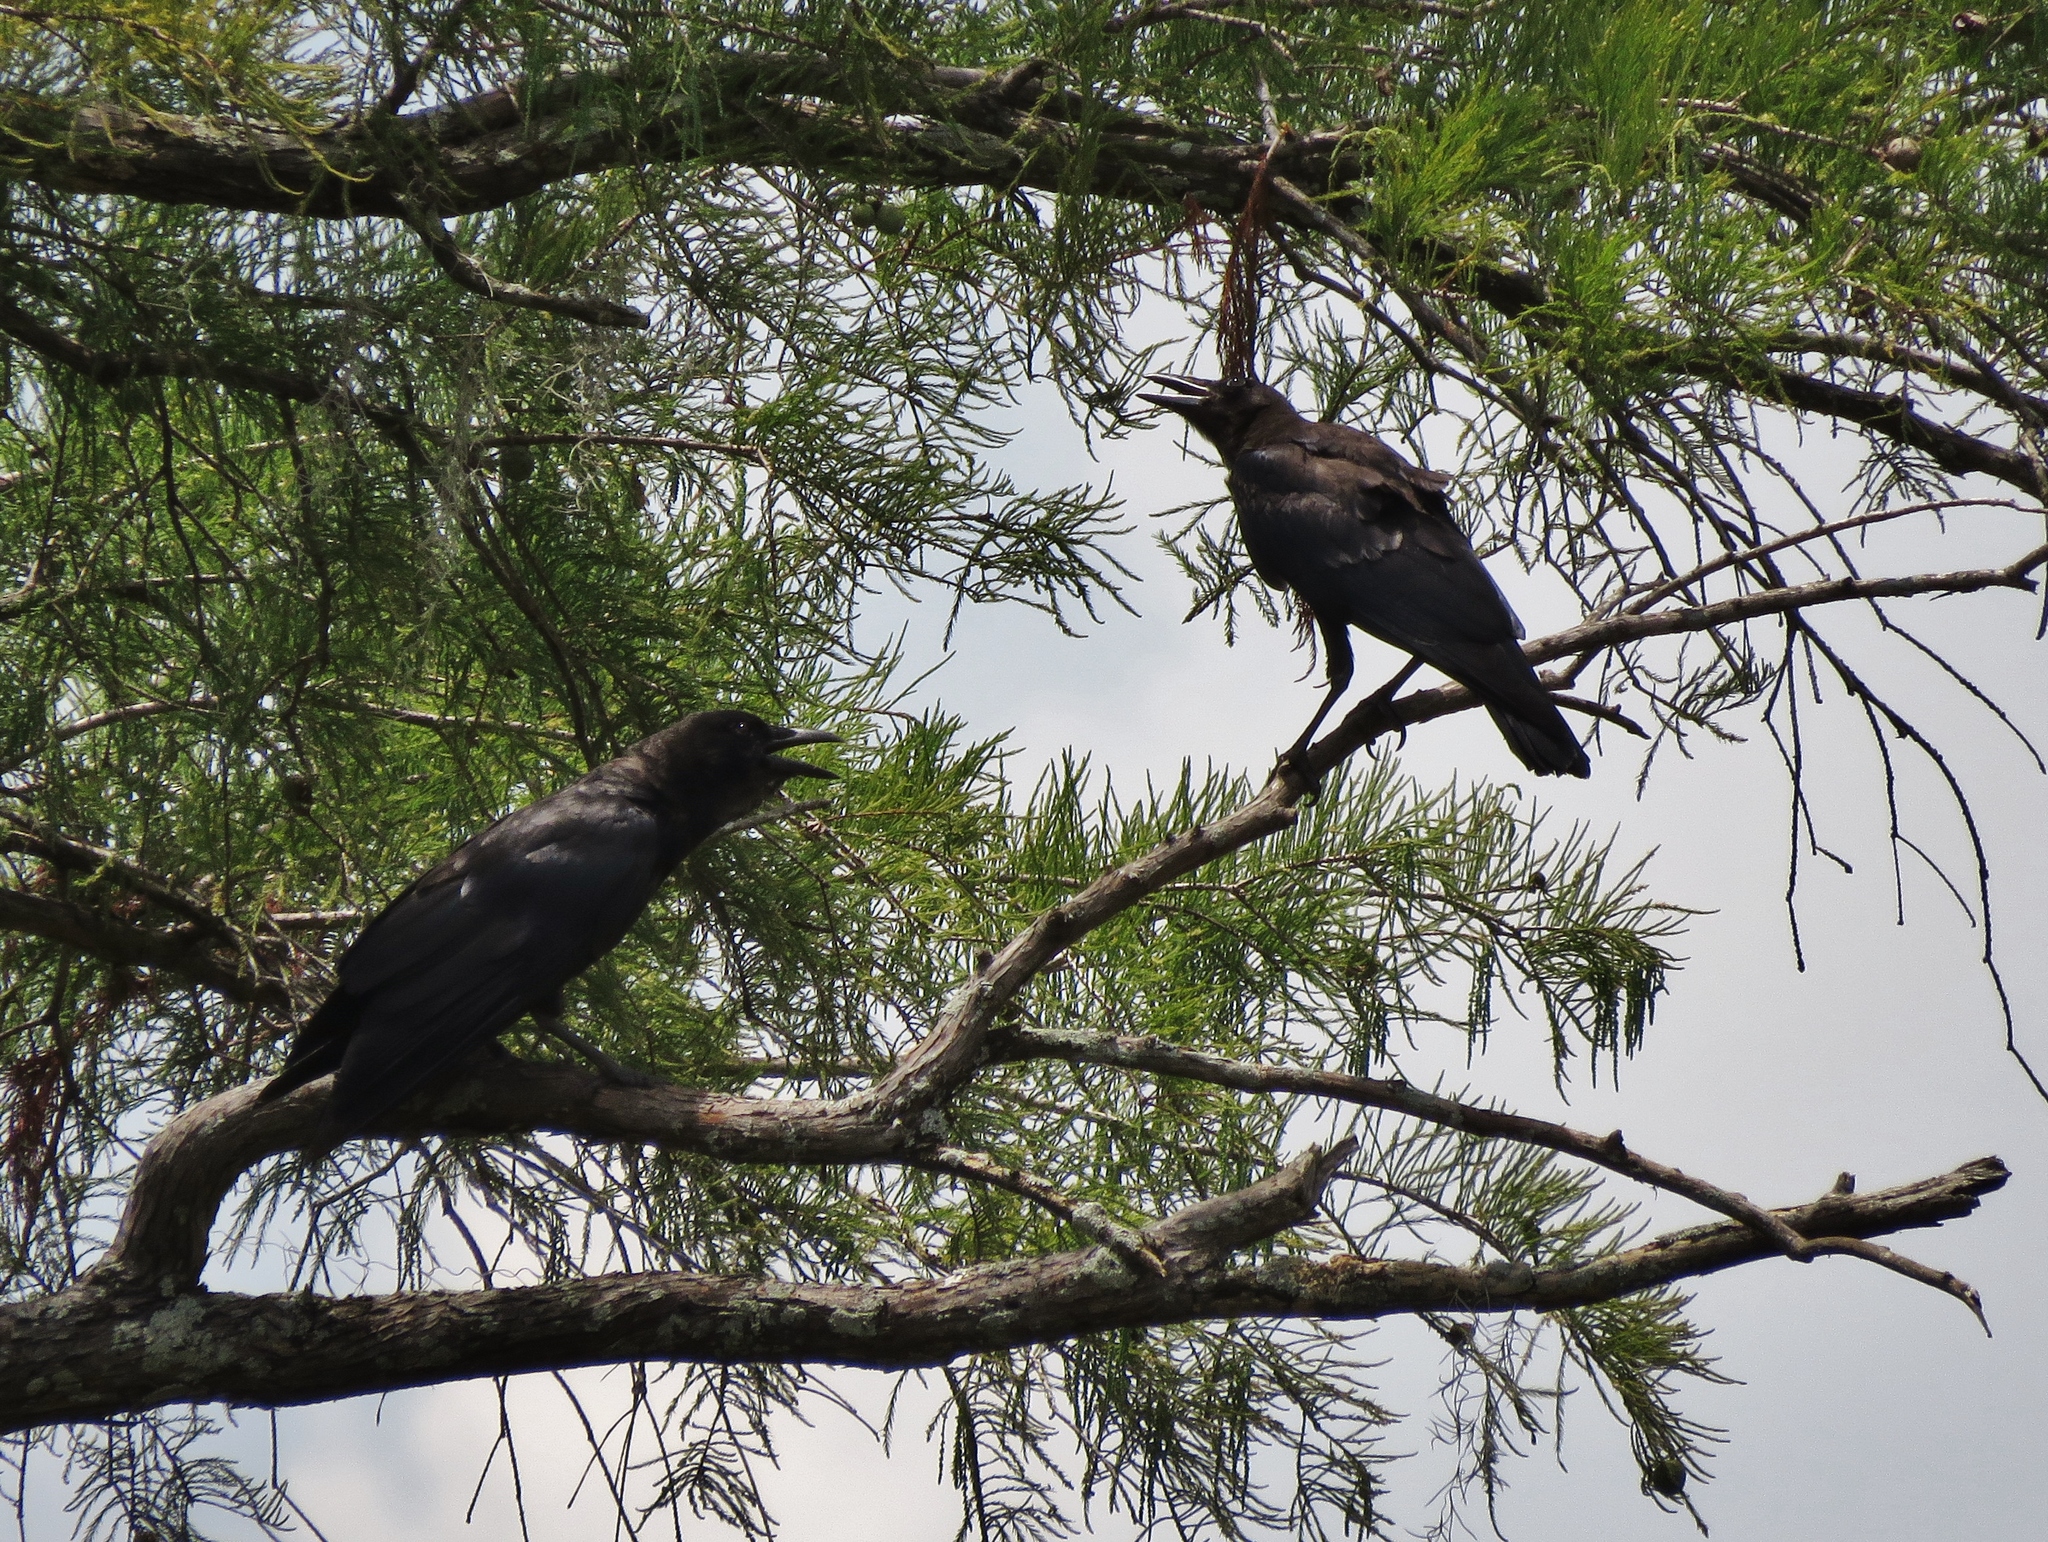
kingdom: Animalia
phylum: Chordata
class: Aves
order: Passeriformes
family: Corvidae
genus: Corvus
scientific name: Corvus brachyrhynchos
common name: American crow
